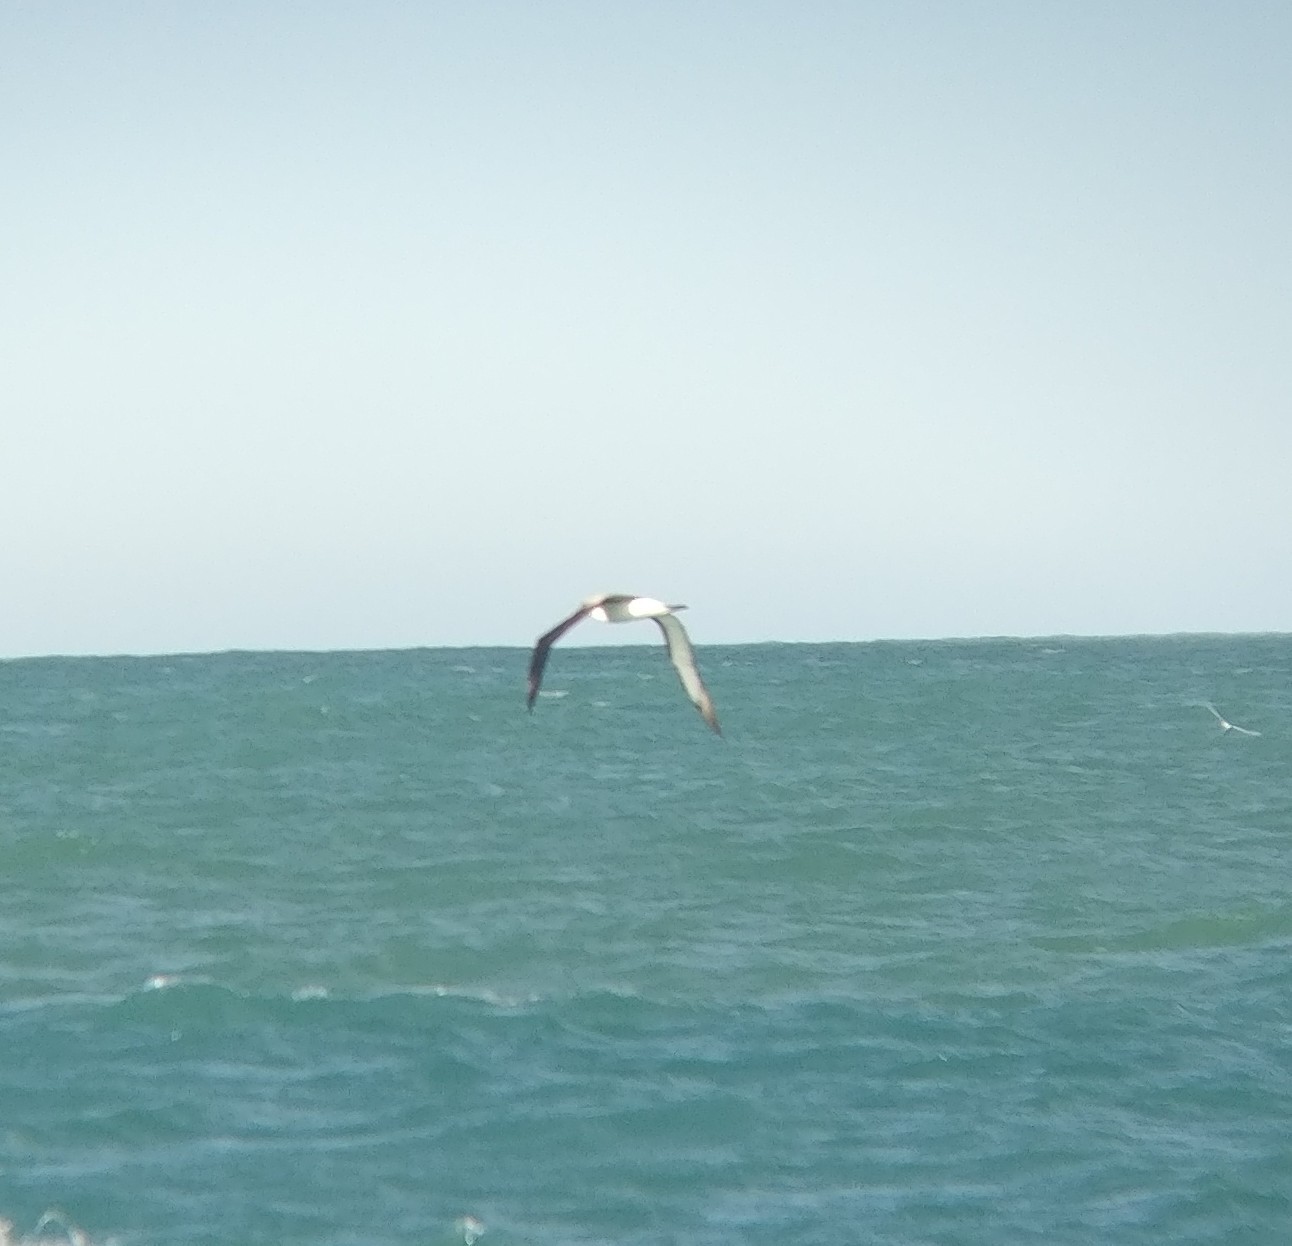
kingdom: Animalia
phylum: Chordata
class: Aves
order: Procellariiformes
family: Diomedeidae
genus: Thalassarche
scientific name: Thalassarche impavida
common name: Campbell albatross
